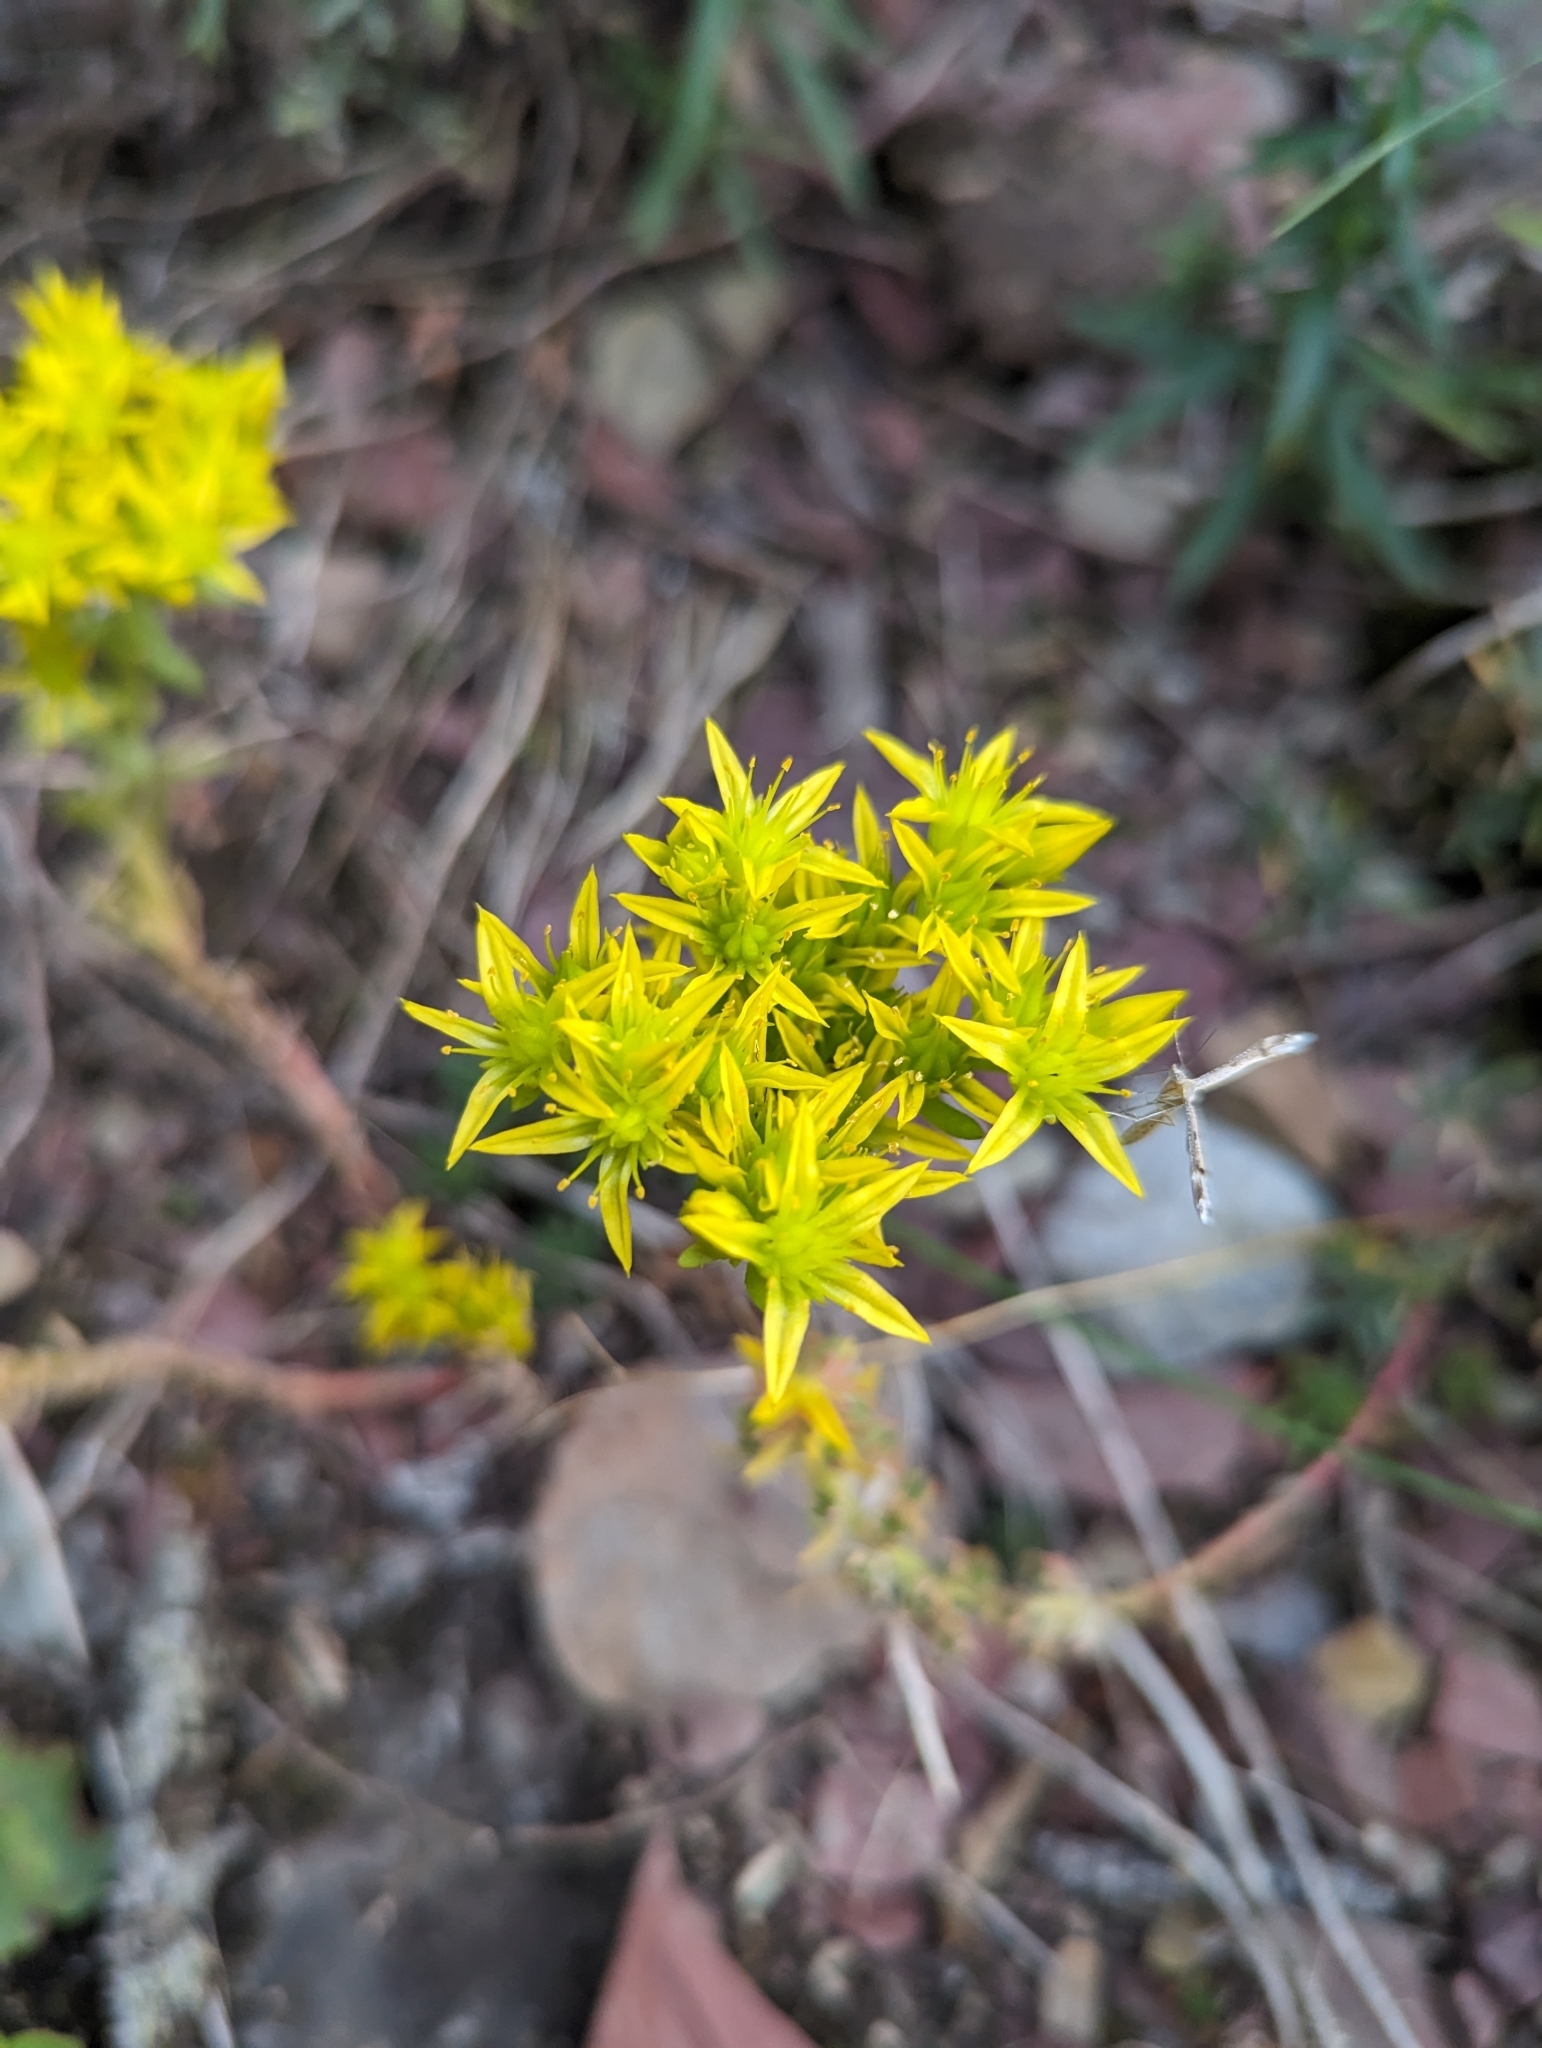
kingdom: Plantae
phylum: Tracheophyta
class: Magnoliopsida
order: Saxifragales
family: Crassulaceae
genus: Sedum
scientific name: Sedum stenopetalum
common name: Narrow-petaled stonecrop
